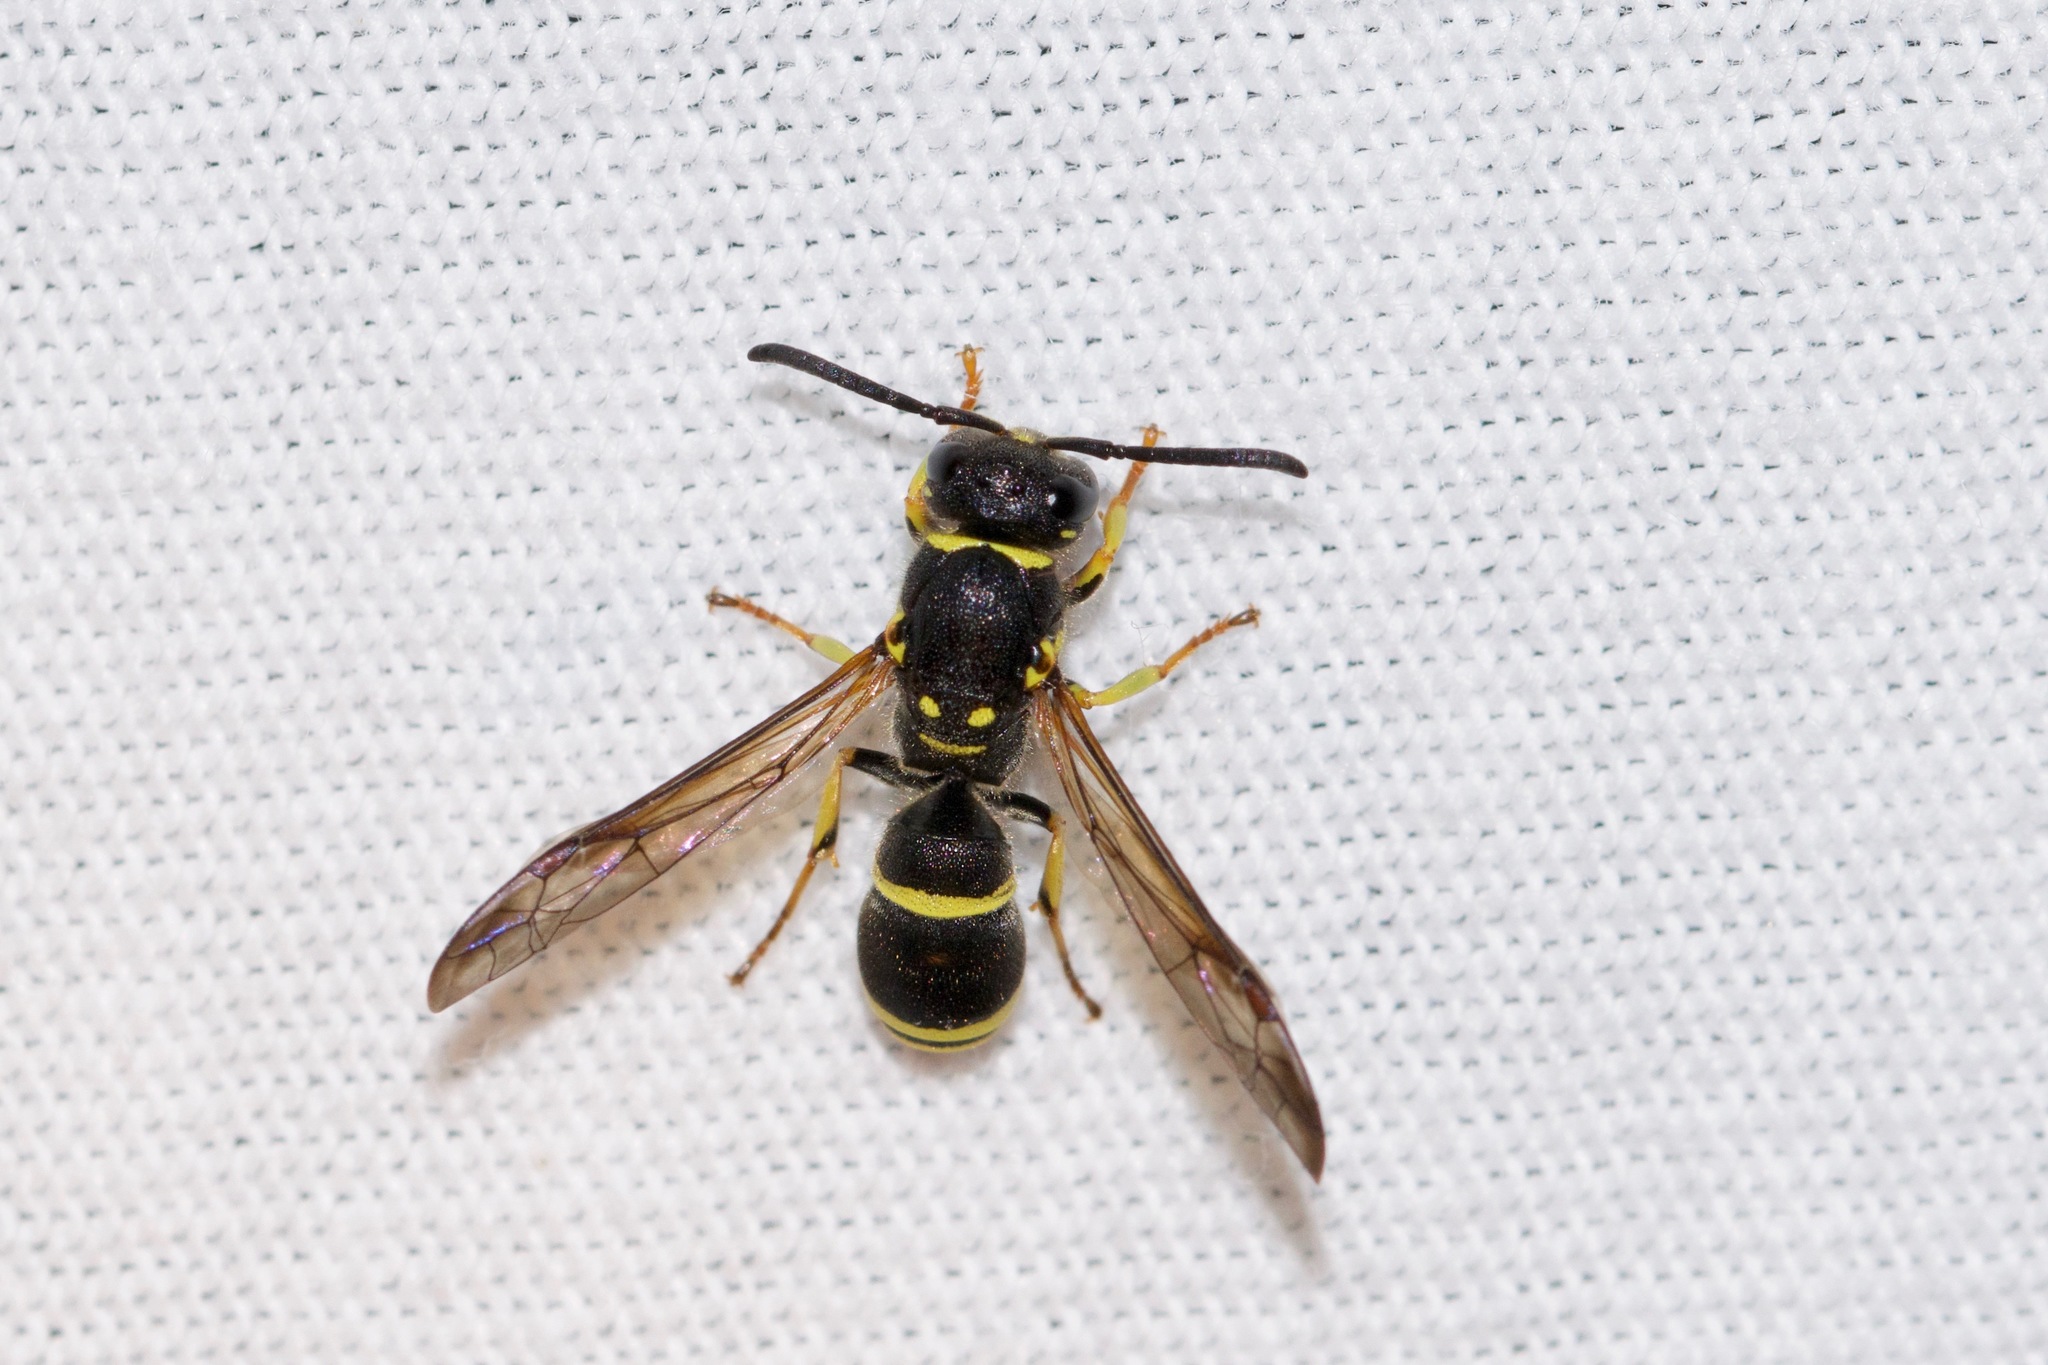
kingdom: Animalia
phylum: Arthropoda
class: Insecta
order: Hymenoptera
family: Vespidae
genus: Ancistrocerus
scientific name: Ancistrocerus adiabatus
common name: Bramble mason wasp
